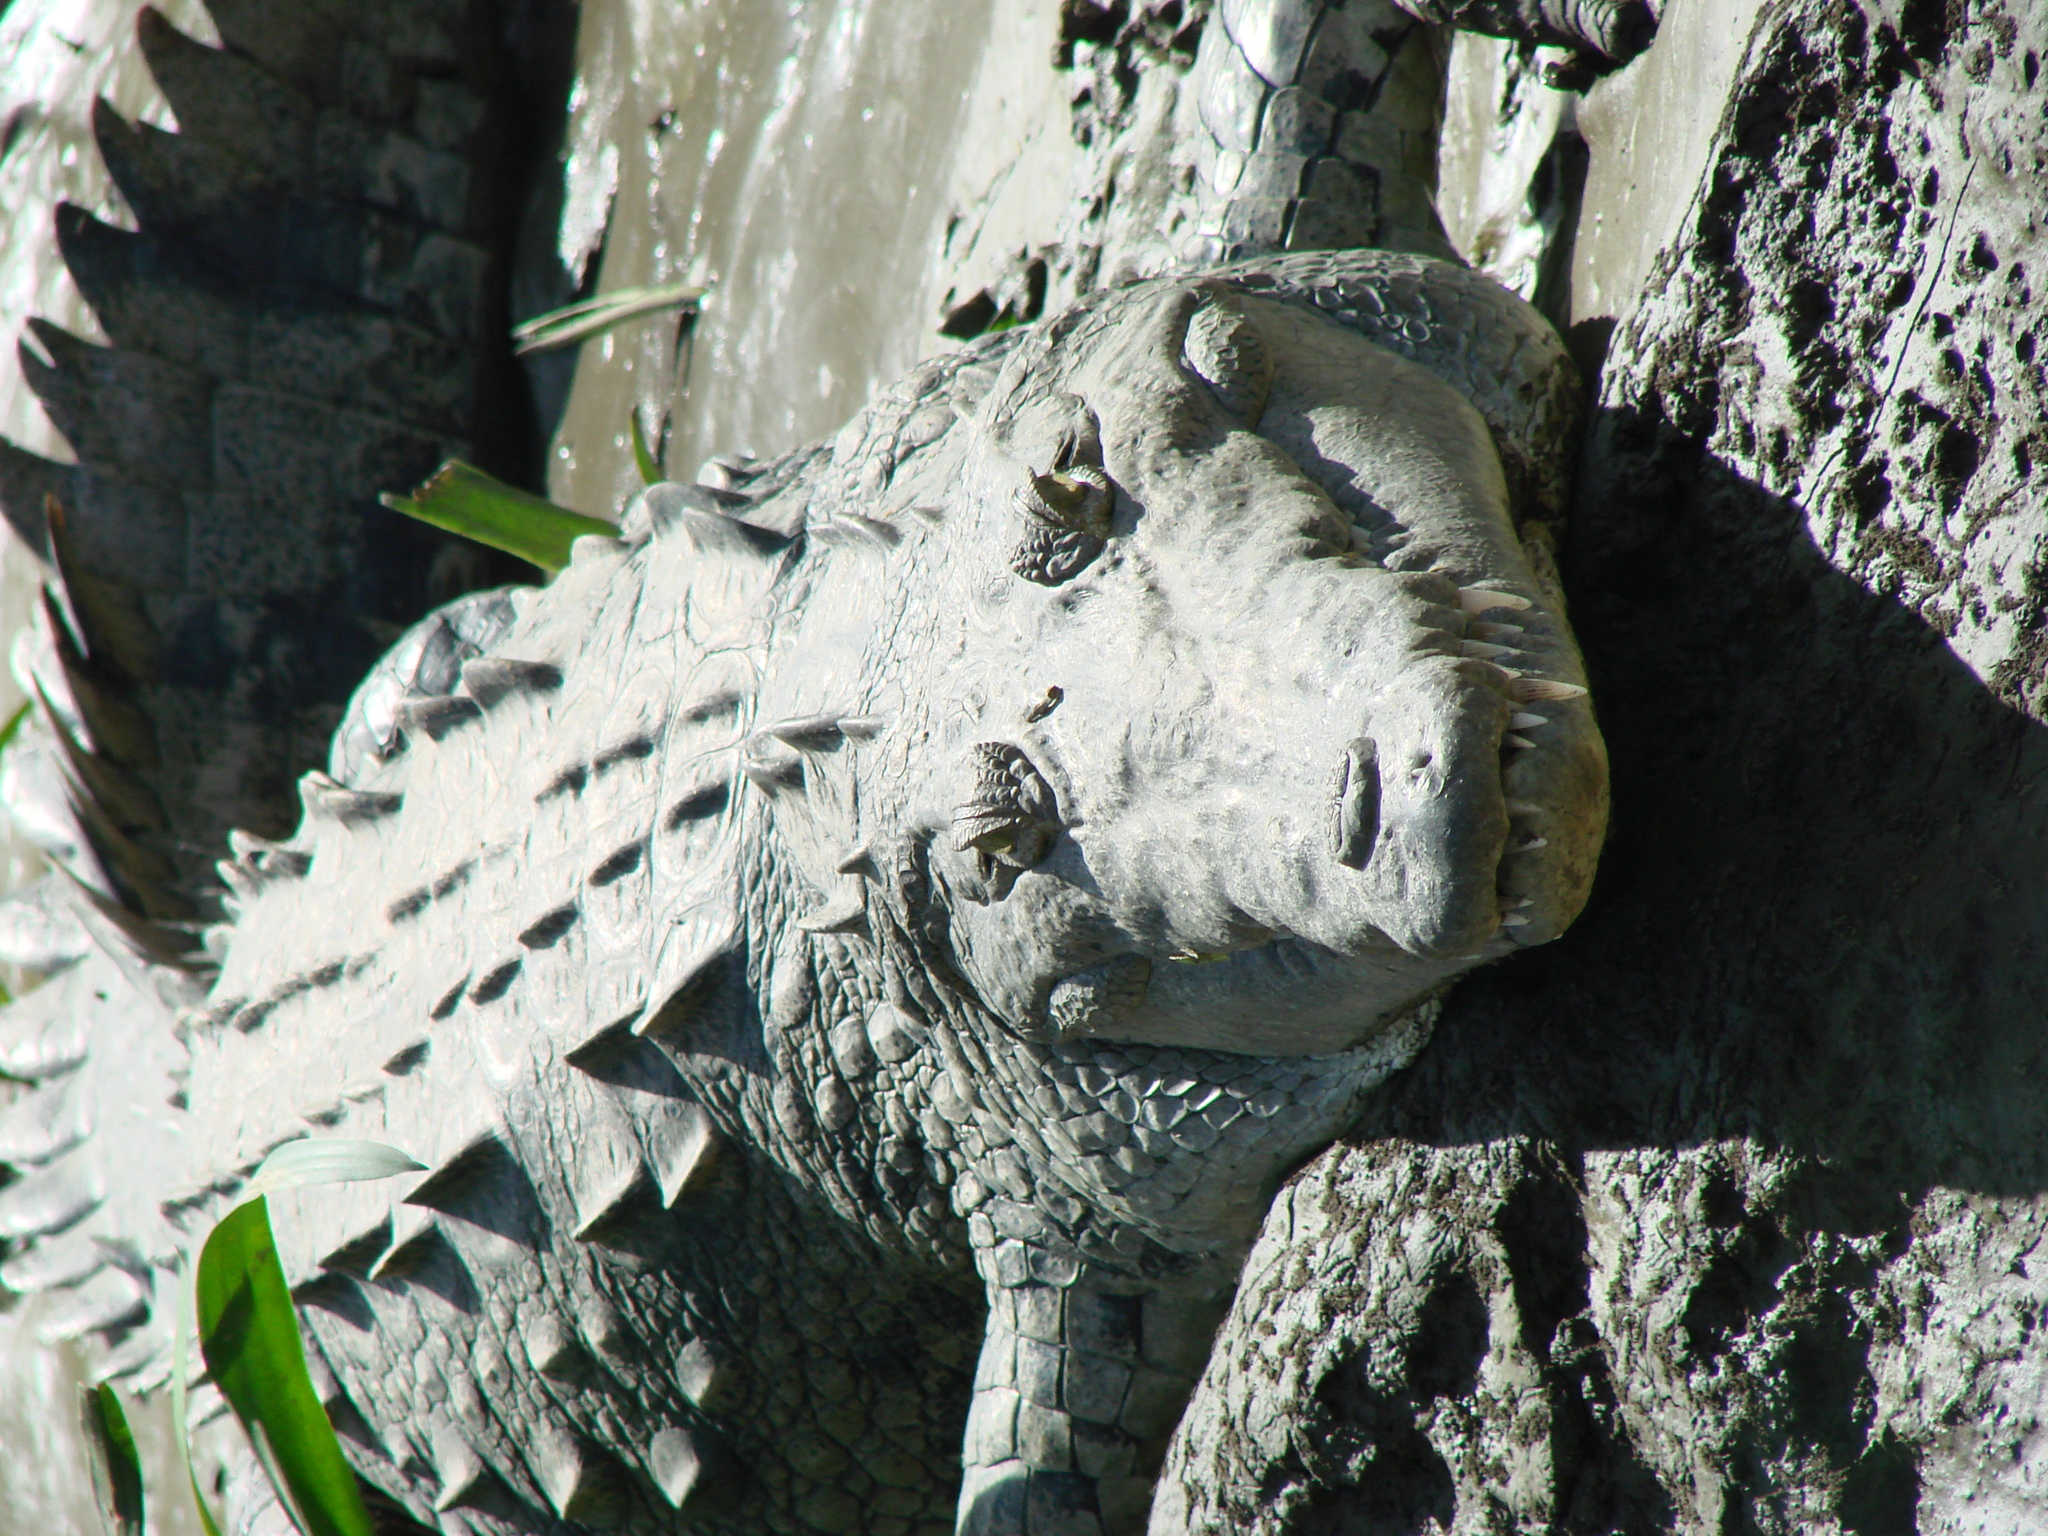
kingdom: Animalia
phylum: Chordata
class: Crocodylia
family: Crocodylidae
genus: Crocodylus
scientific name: Crocodylus acutus
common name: American crocodile
